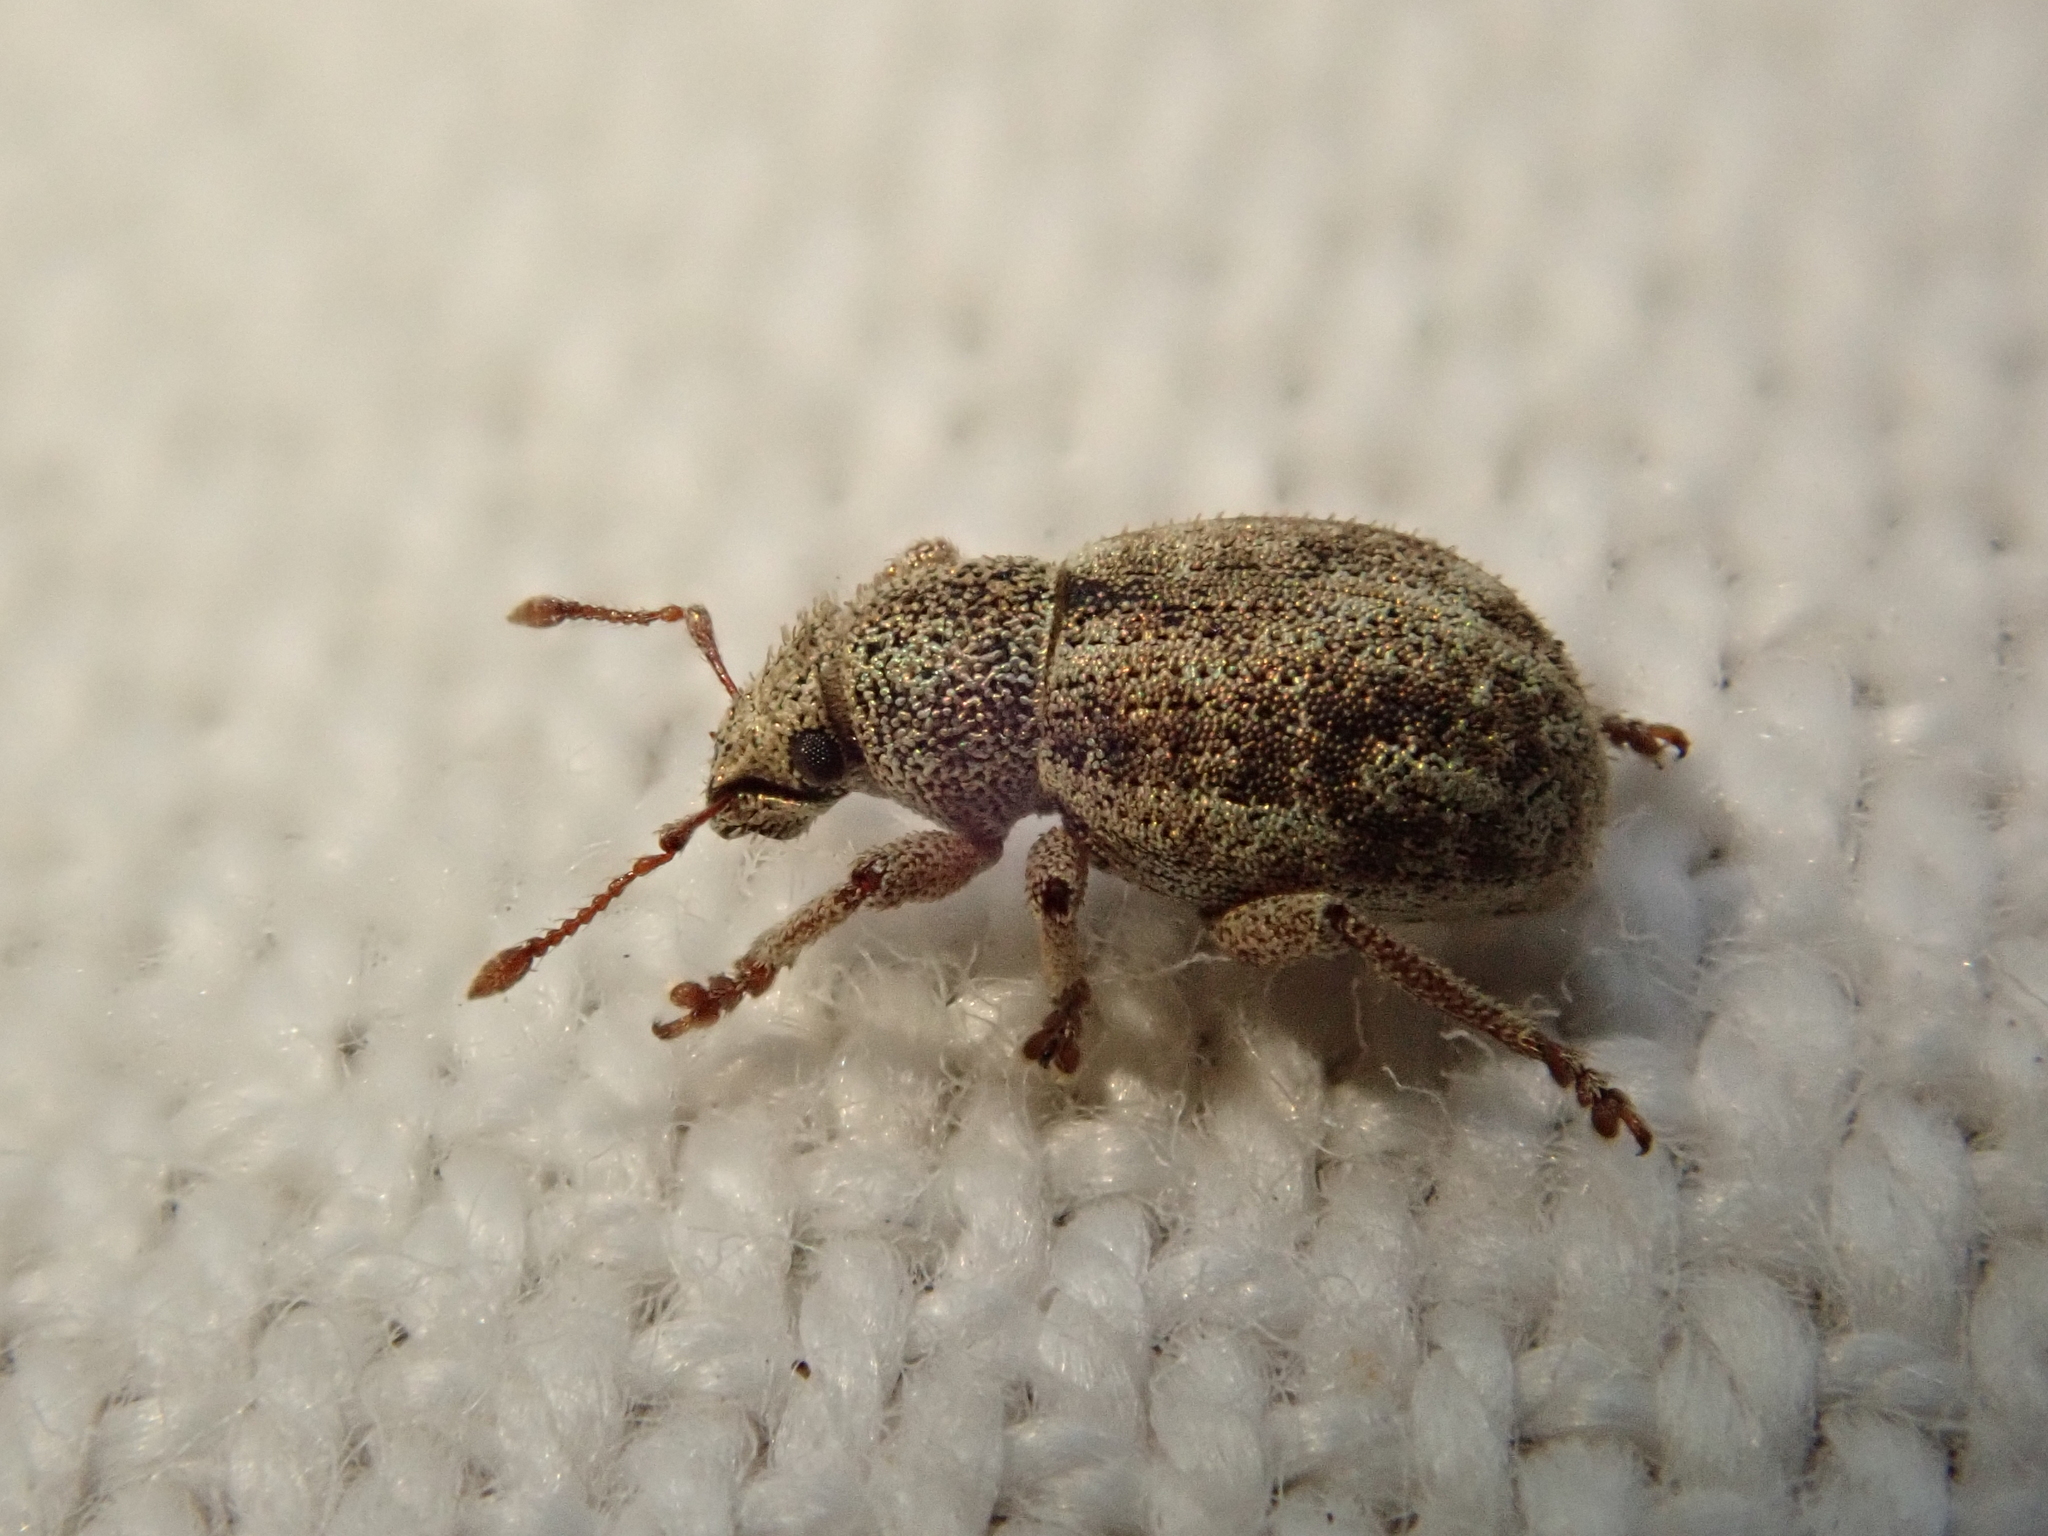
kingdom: Animalia
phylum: Arthropoda
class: Insecta
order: Coleoptera
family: Curculionidae
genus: Strophosoma
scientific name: Strophosoma capitatum
